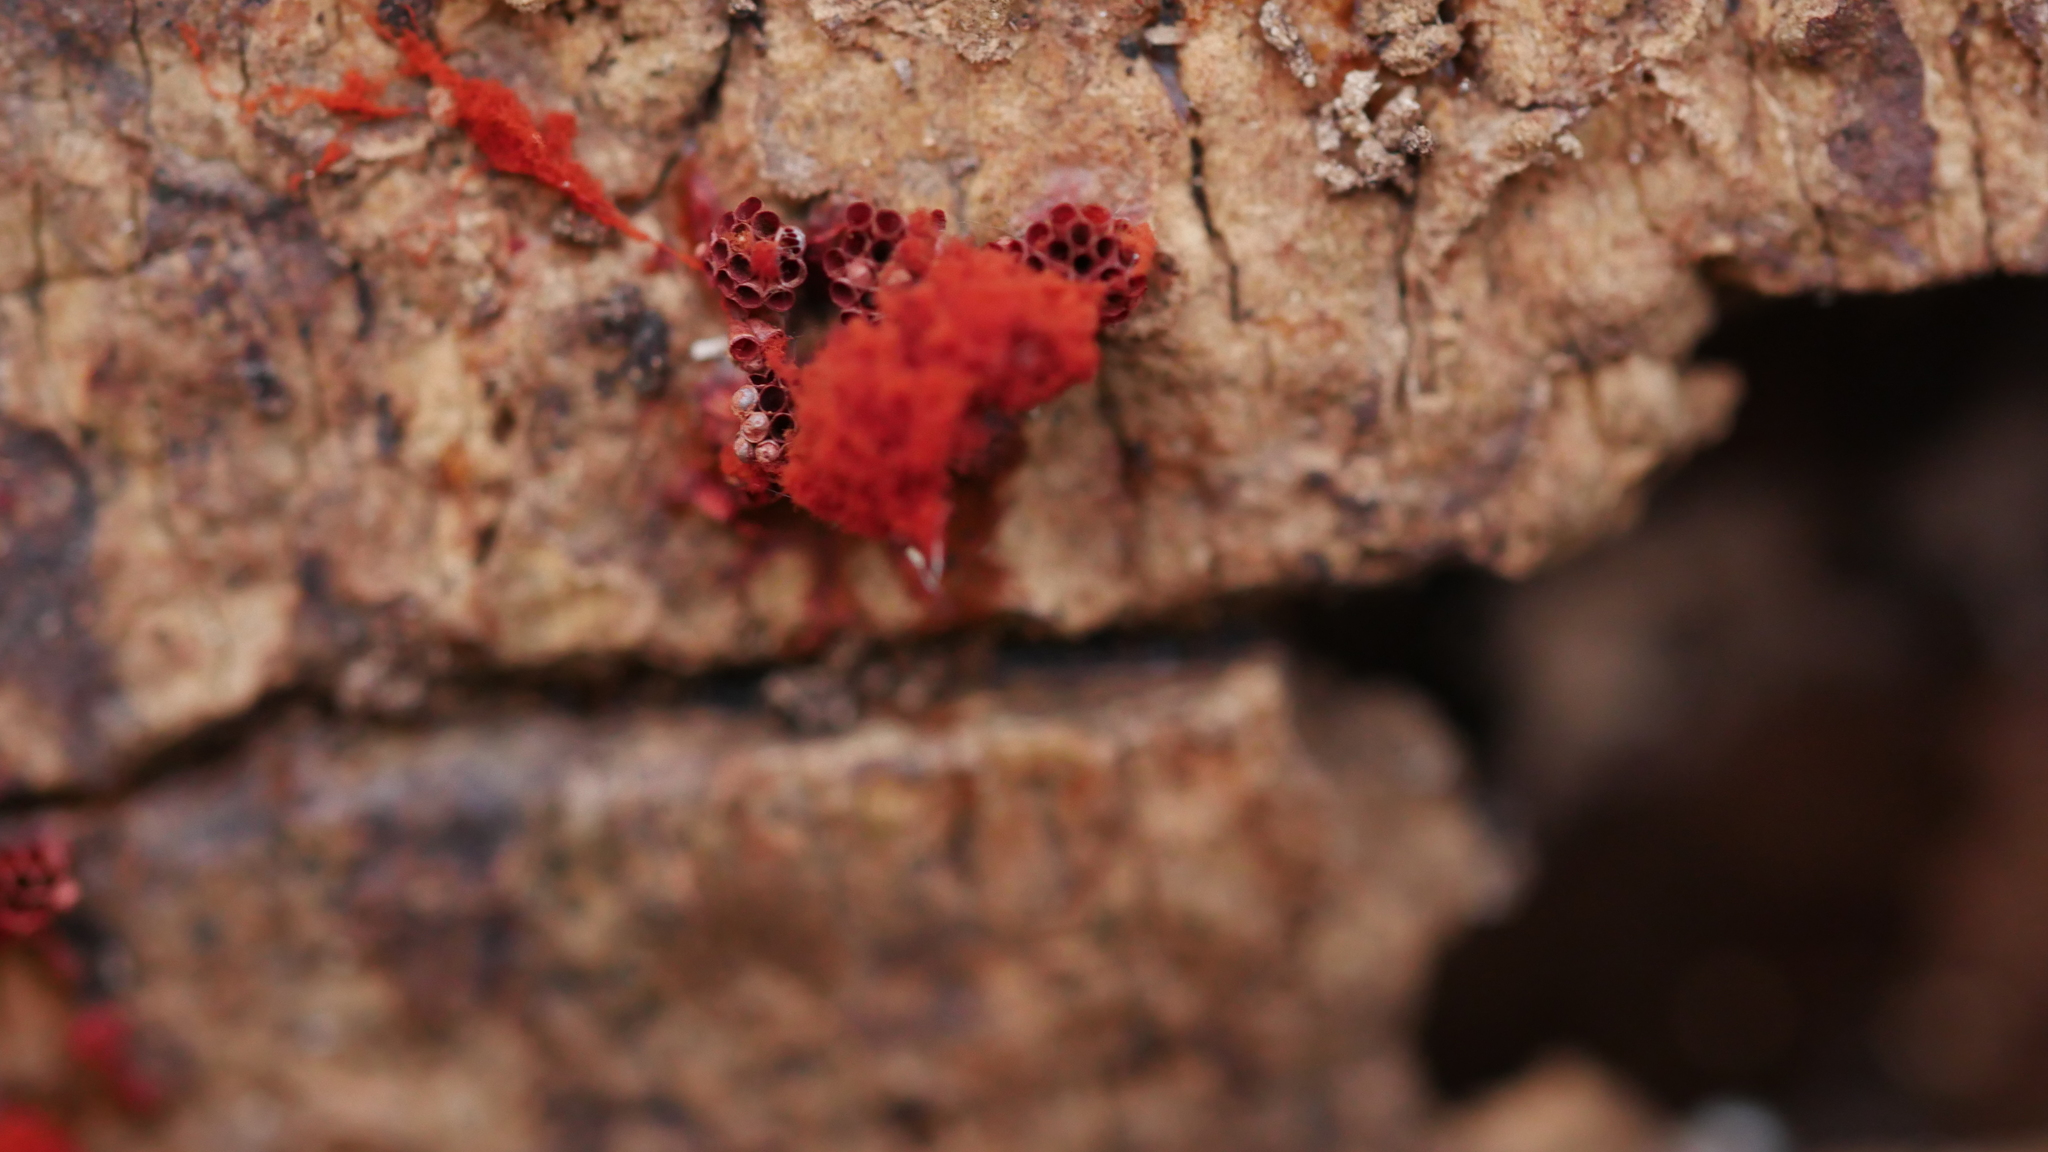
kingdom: Protozoa
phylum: Mycetozoa
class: Myxomycetes
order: Trichiales
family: Trichiaceae
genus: Metatrichia
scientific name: Metatrichia vesparia
